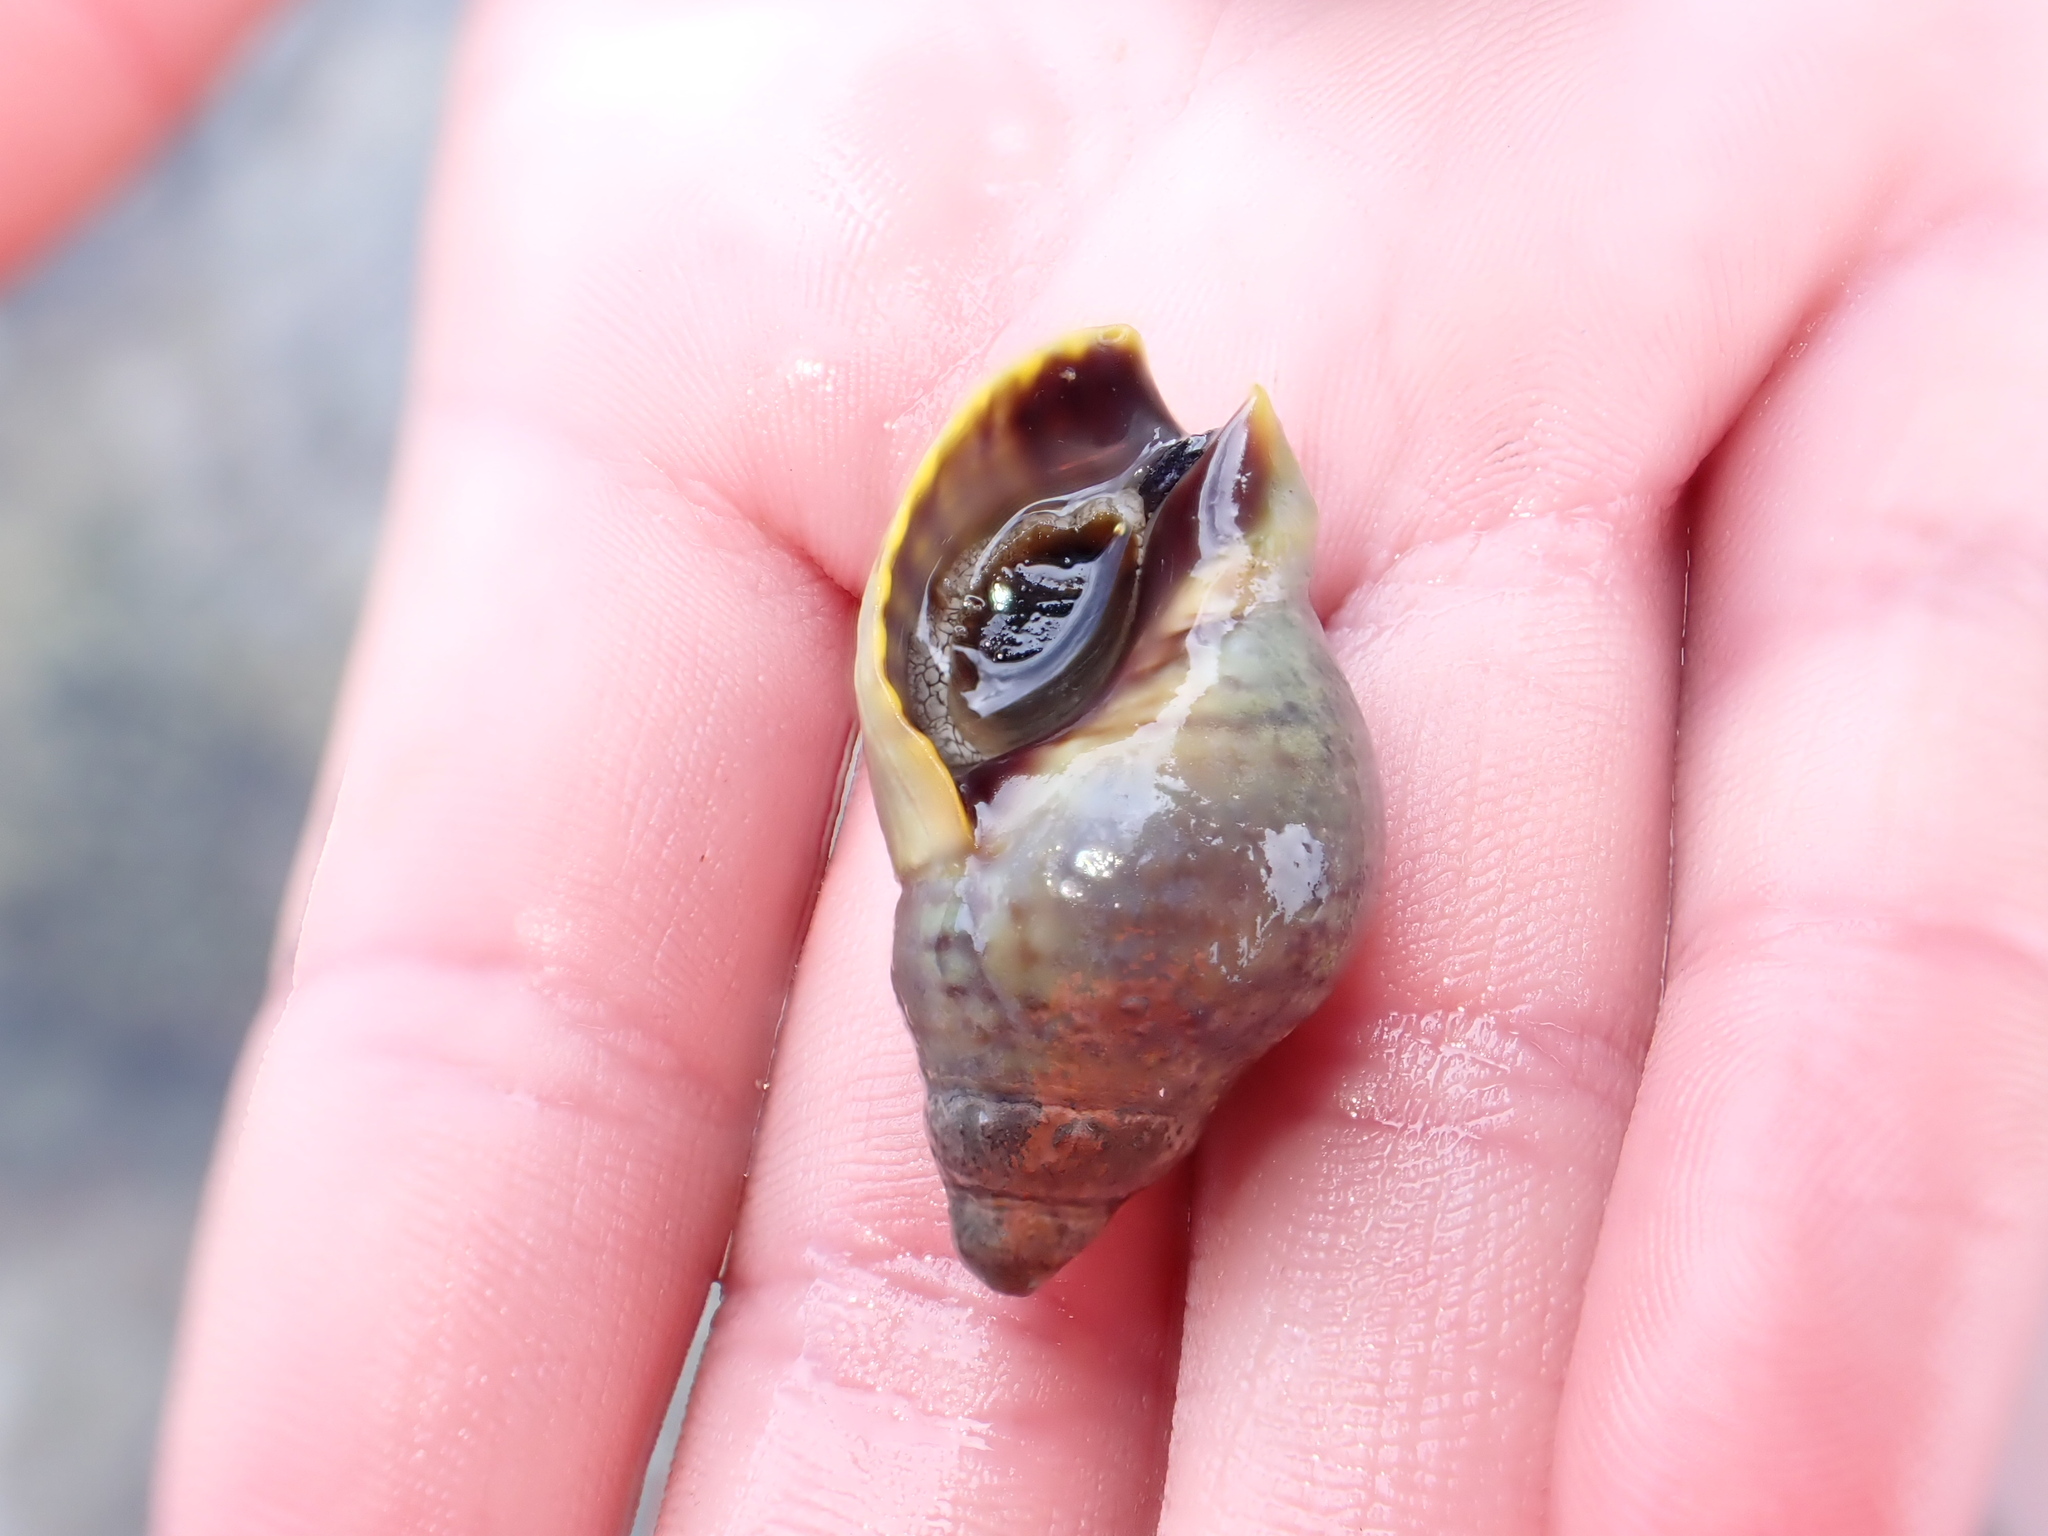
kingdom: Animalia
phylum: Mollusca
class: Gastropoda
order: Neogastropoda
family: Cominellidae
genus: Cominella
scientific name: Cominella maculosa
